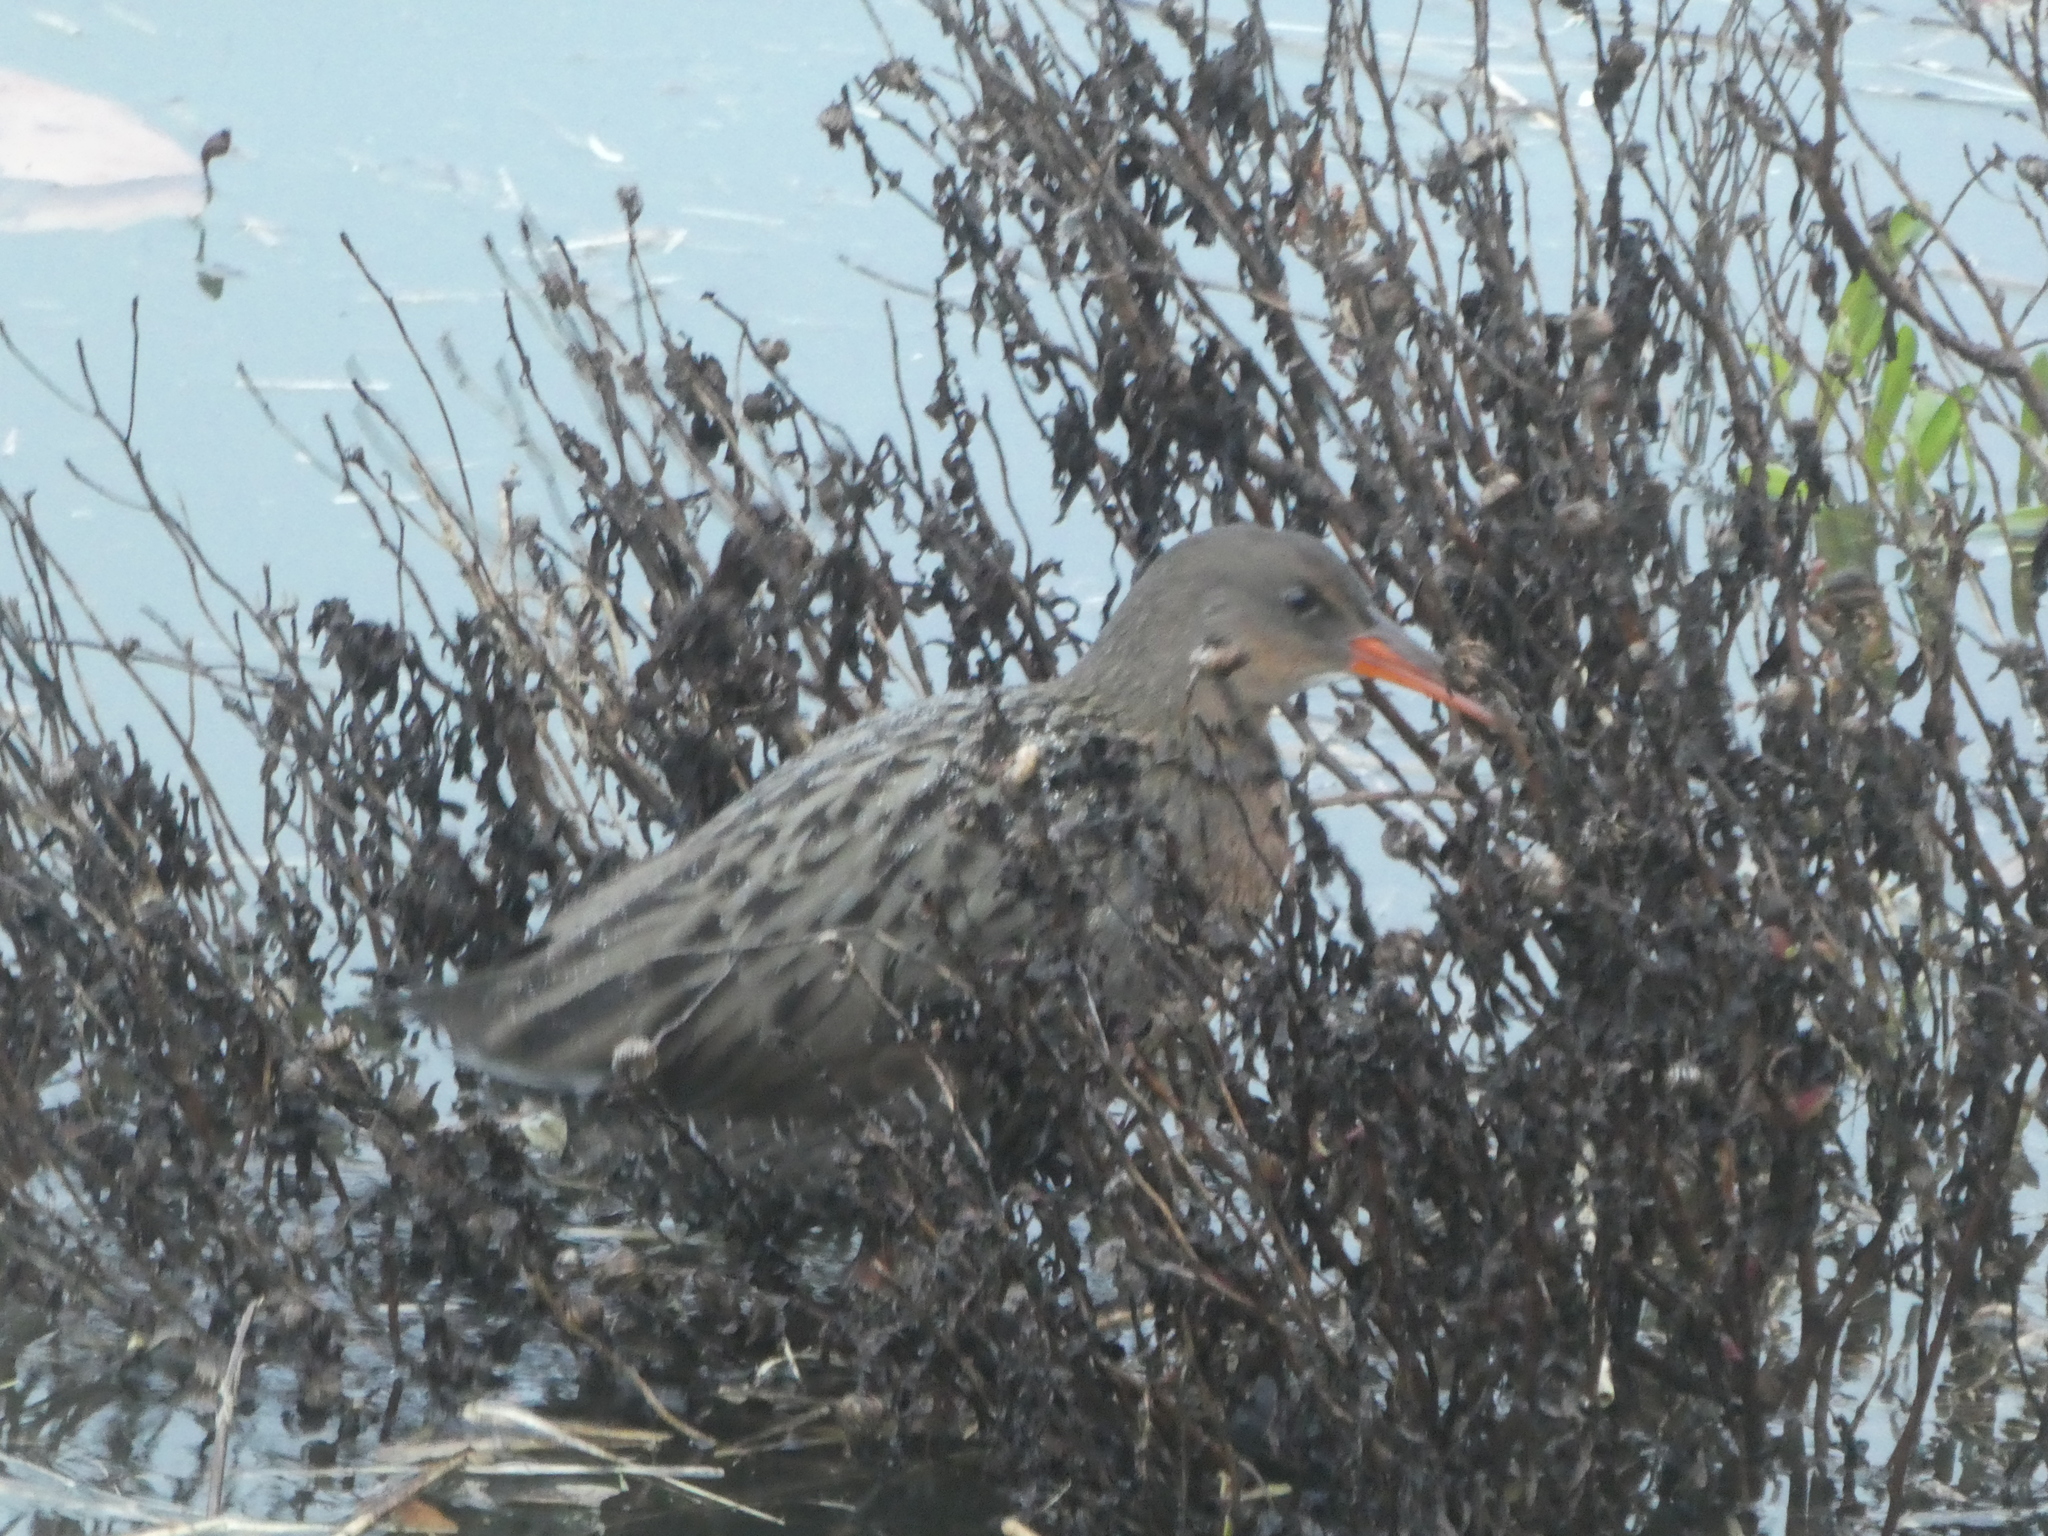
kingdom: Animalia
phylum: Chordata
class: Aves
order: Gruiformes
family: Rallidae
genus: Rallus
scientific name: Rallus obsoletus
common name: Ridgway's rail
